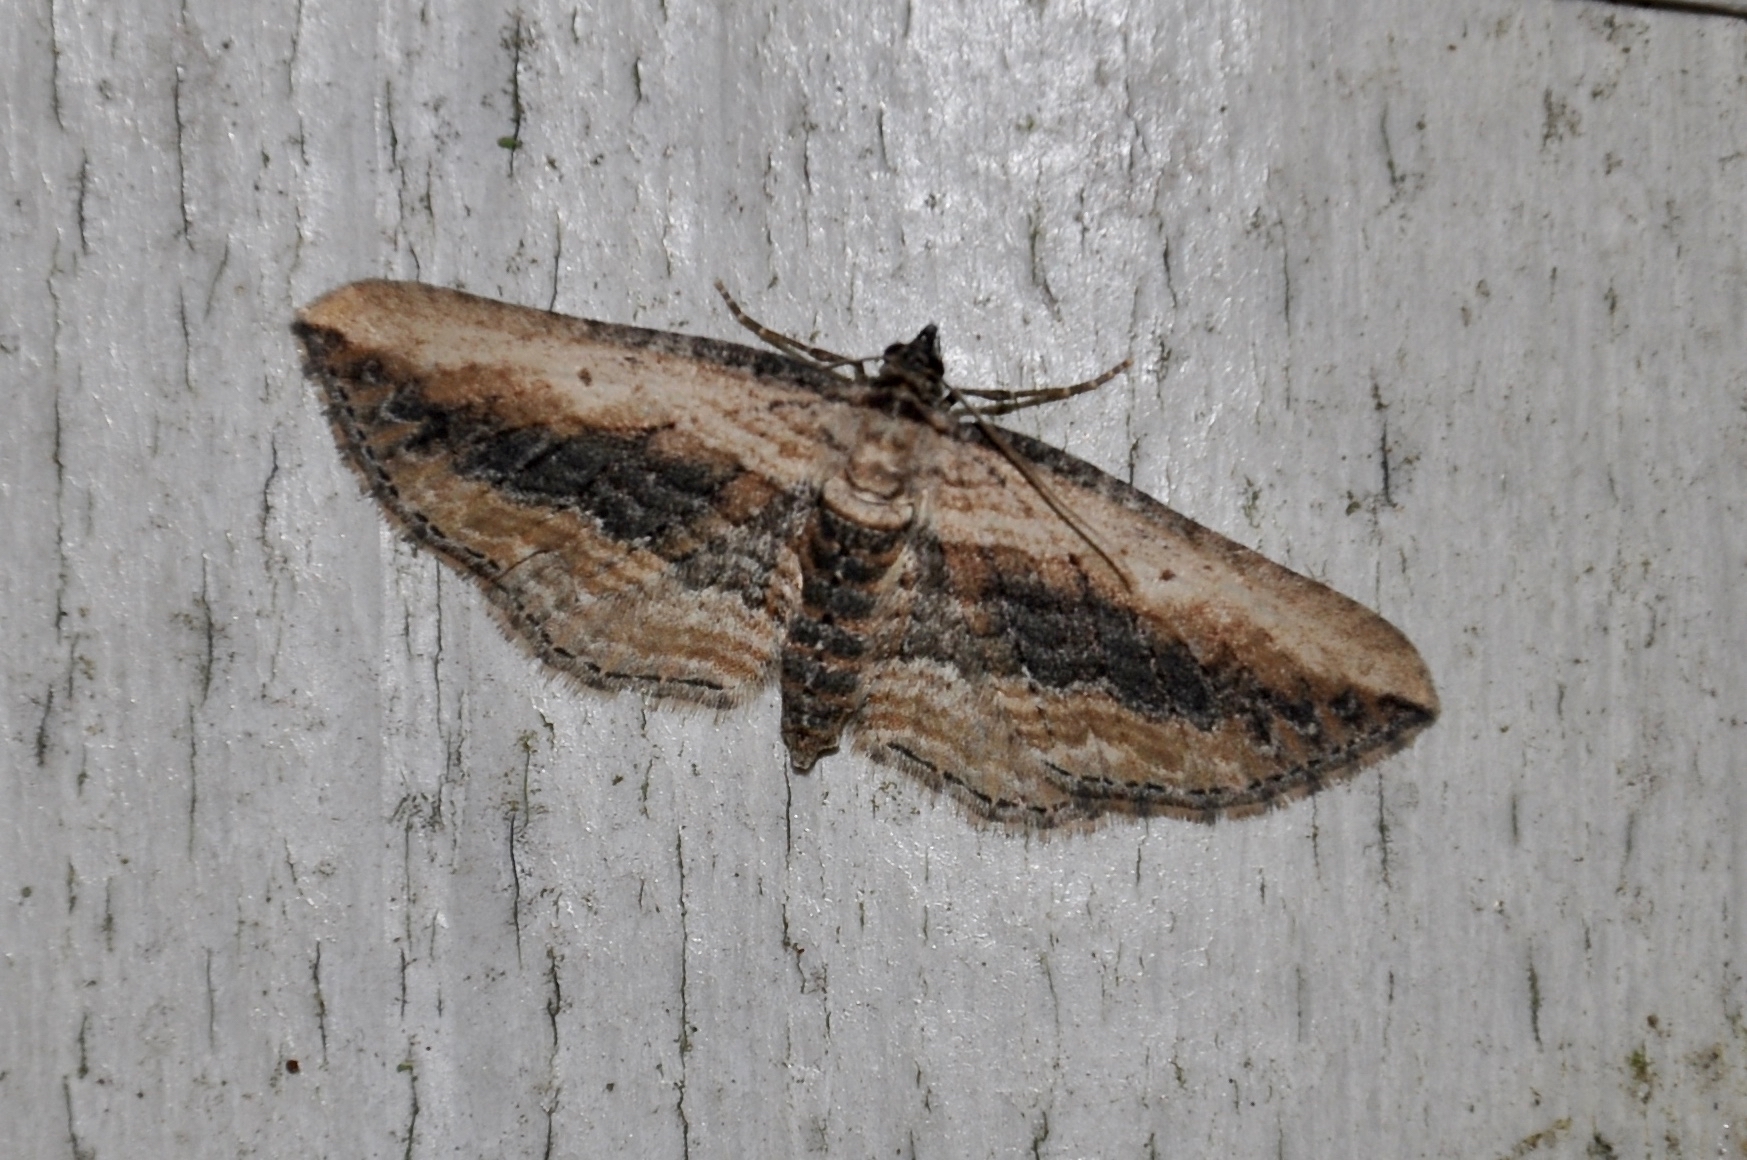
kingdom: Animalia
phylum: Arthropoda
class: Insecta
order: Lepidoptera
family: Geometridae
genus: Horisme
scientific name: Horisme vitalbata
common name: Small waved umber
